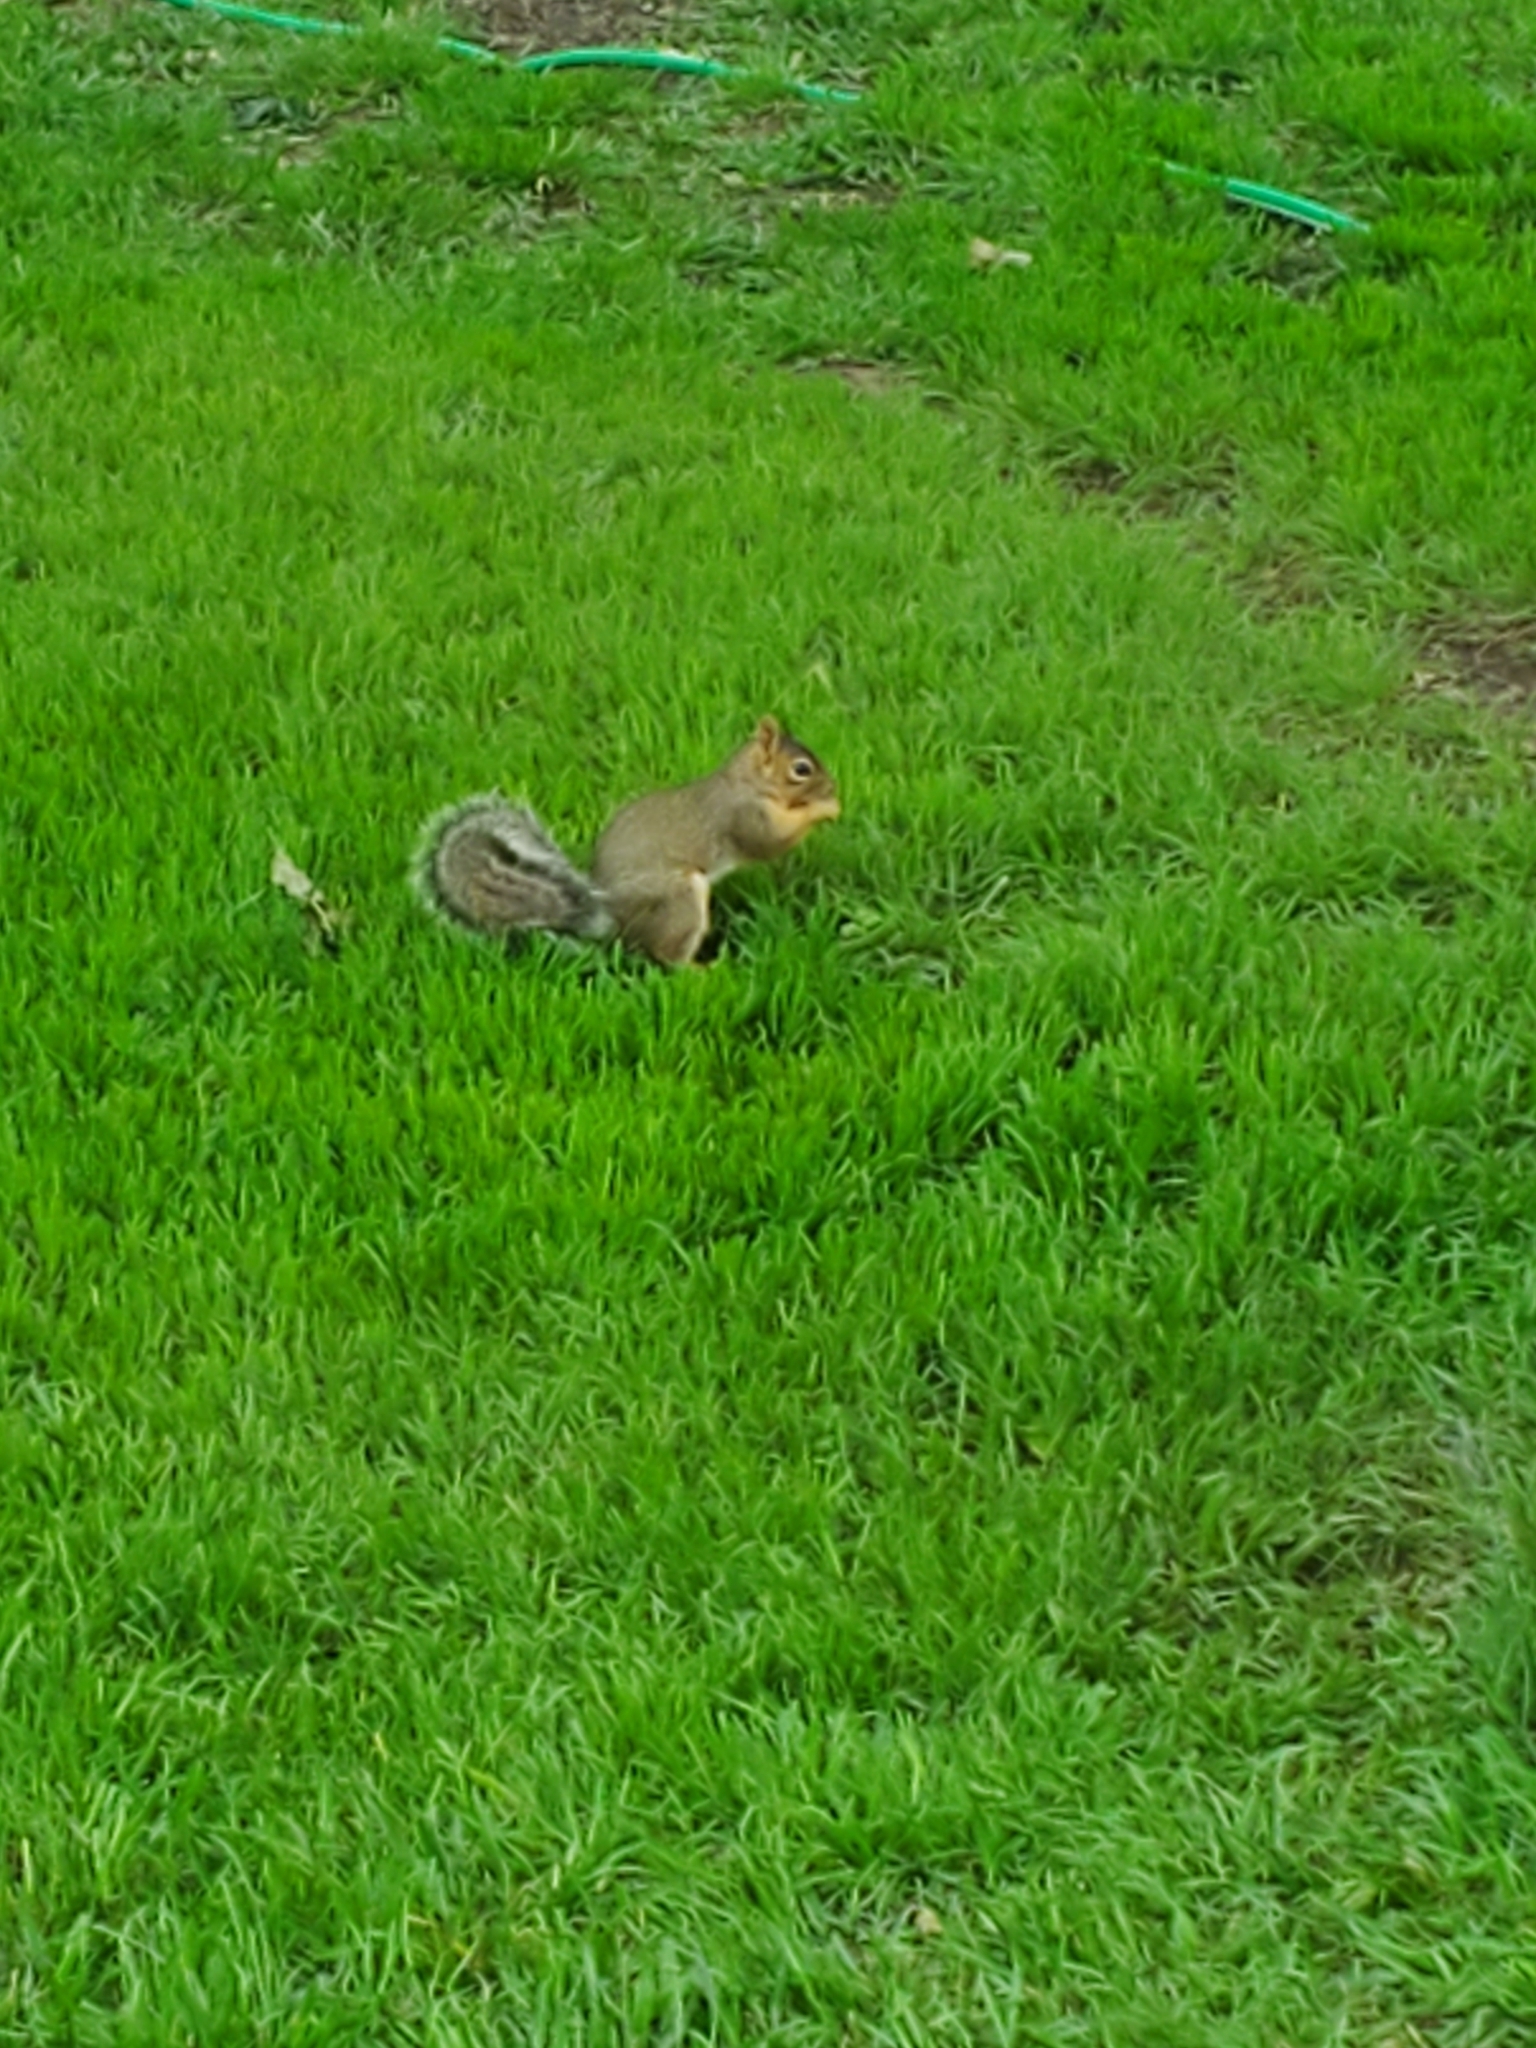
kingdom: Animalia
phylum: Chordata
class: Mammalia
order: Rodentia
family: Sciuridae
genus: Sciurus
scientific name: Sciurus niger
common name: Fox squirrel
